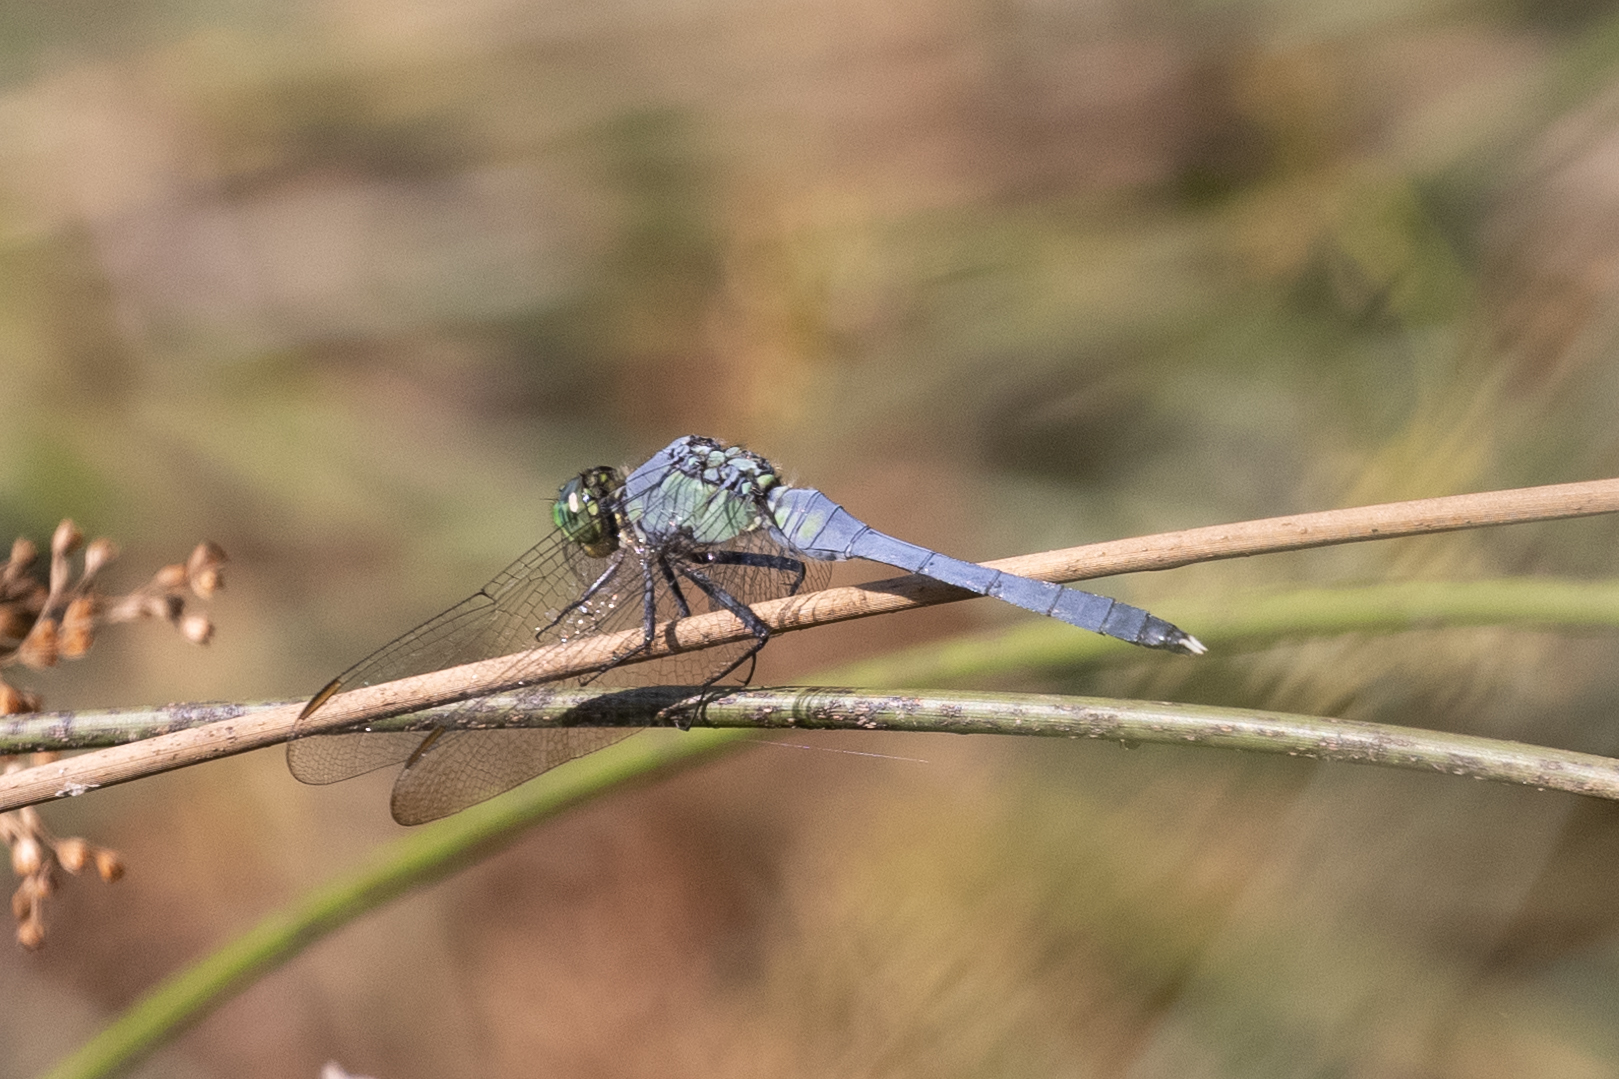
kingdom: Animalia
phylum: Arthropoda
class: Insecta
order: Odonata
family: Libellulidae
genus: Erythemis
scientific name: Erythemis simplicicollis
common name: Eastern pondhawk
